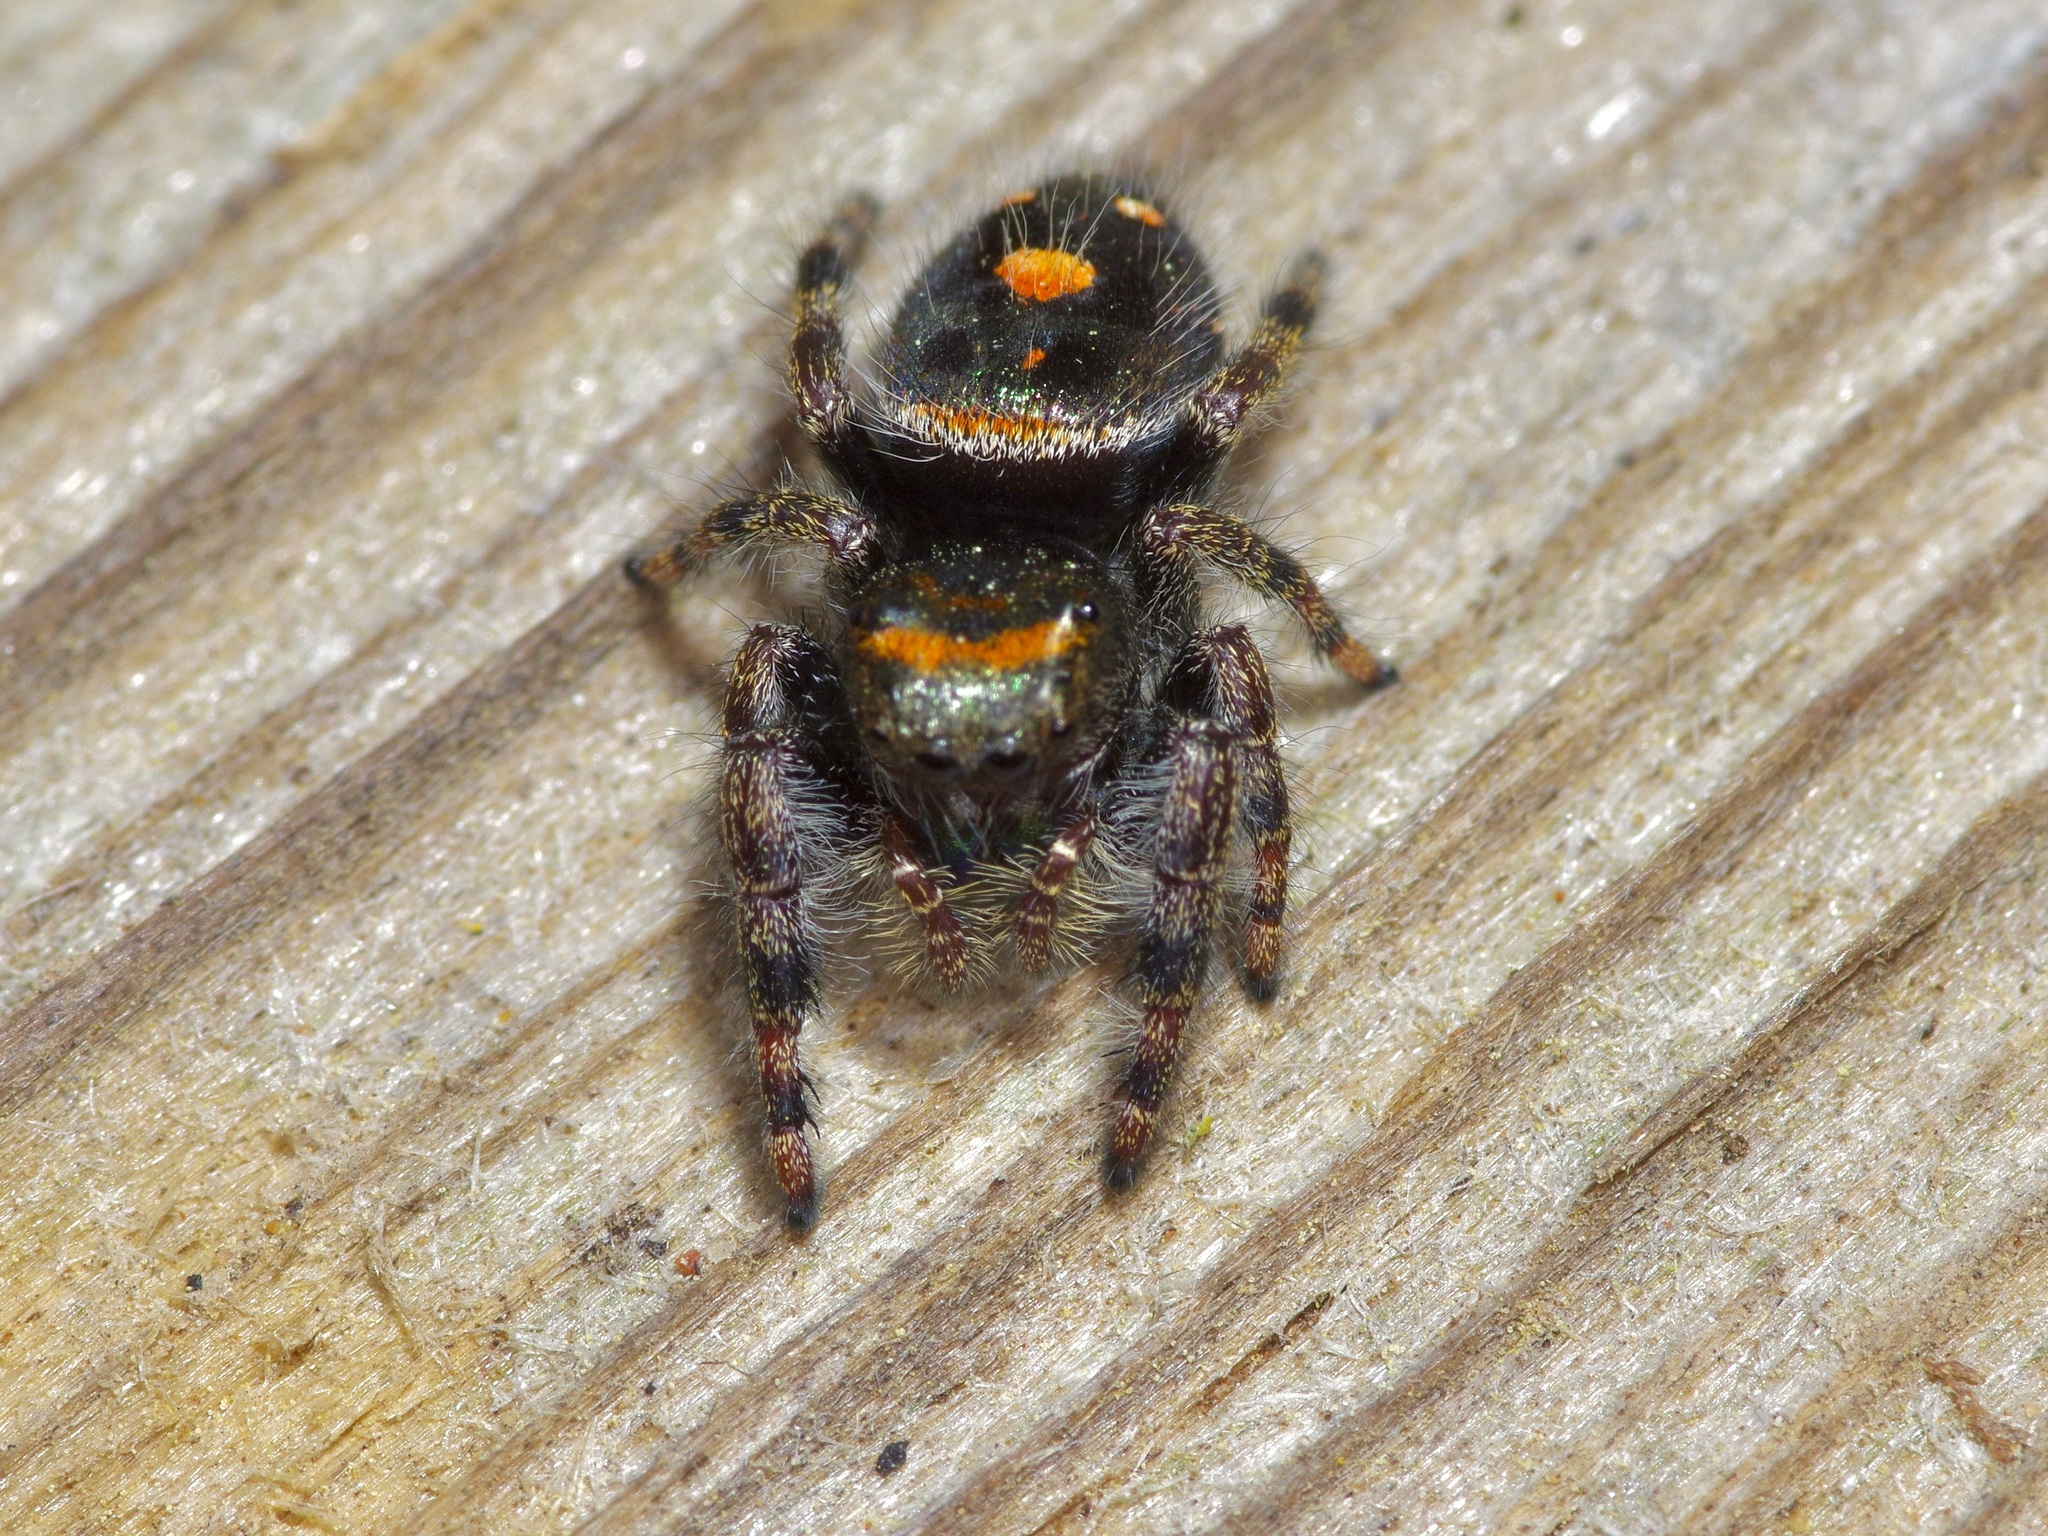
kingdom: Animalia
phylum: Arthropoda
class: Arachnida
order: Araneae
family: Salticidae
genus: Phidippus
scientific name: Phidippus audax
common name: Bold jumper
